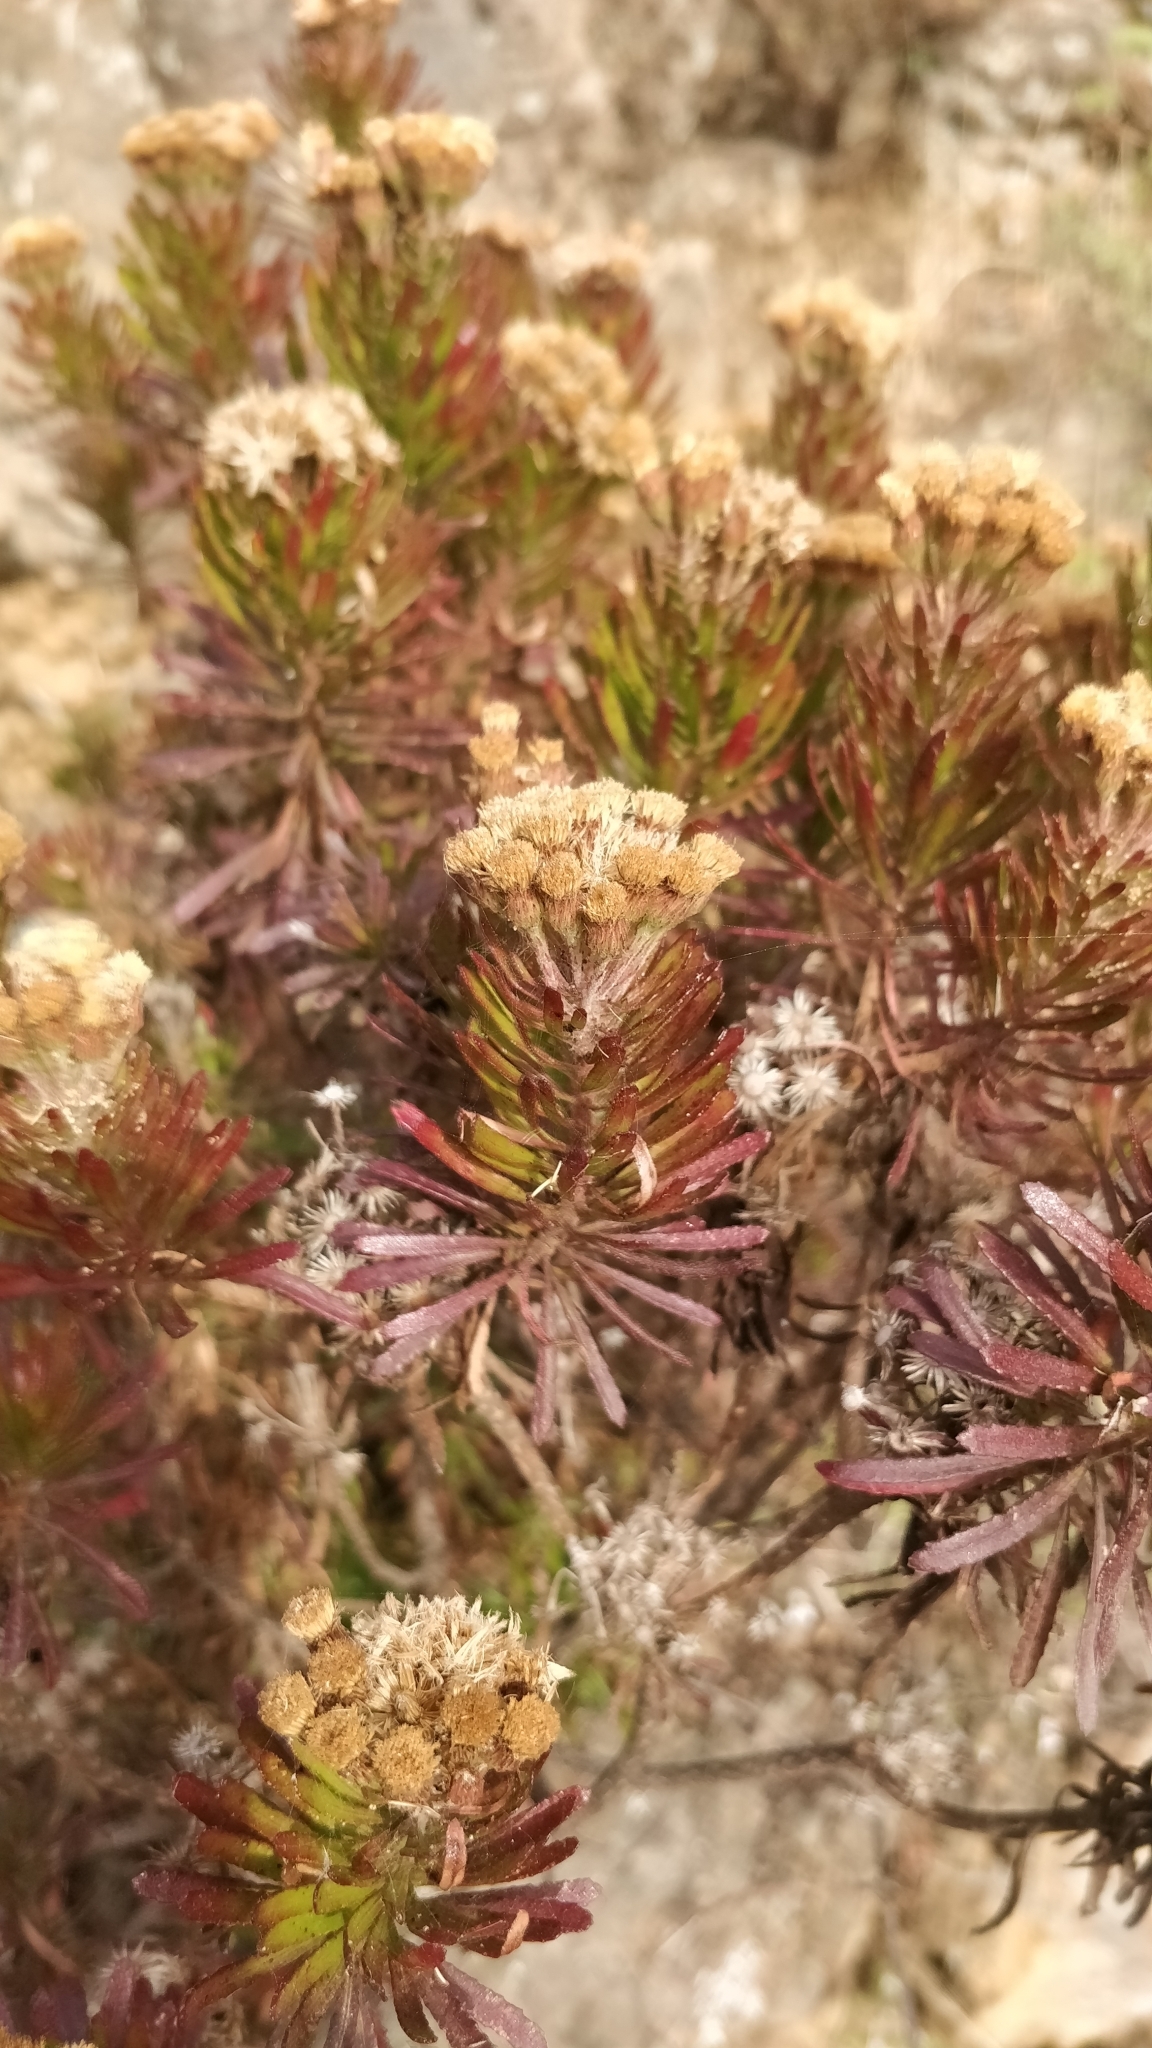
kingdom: Plantae
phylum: Tracheophyta
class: Magnoliopsida
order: Asterales
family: Asteraceae
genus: Allagopappus
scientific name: Allagopappus canariensis
